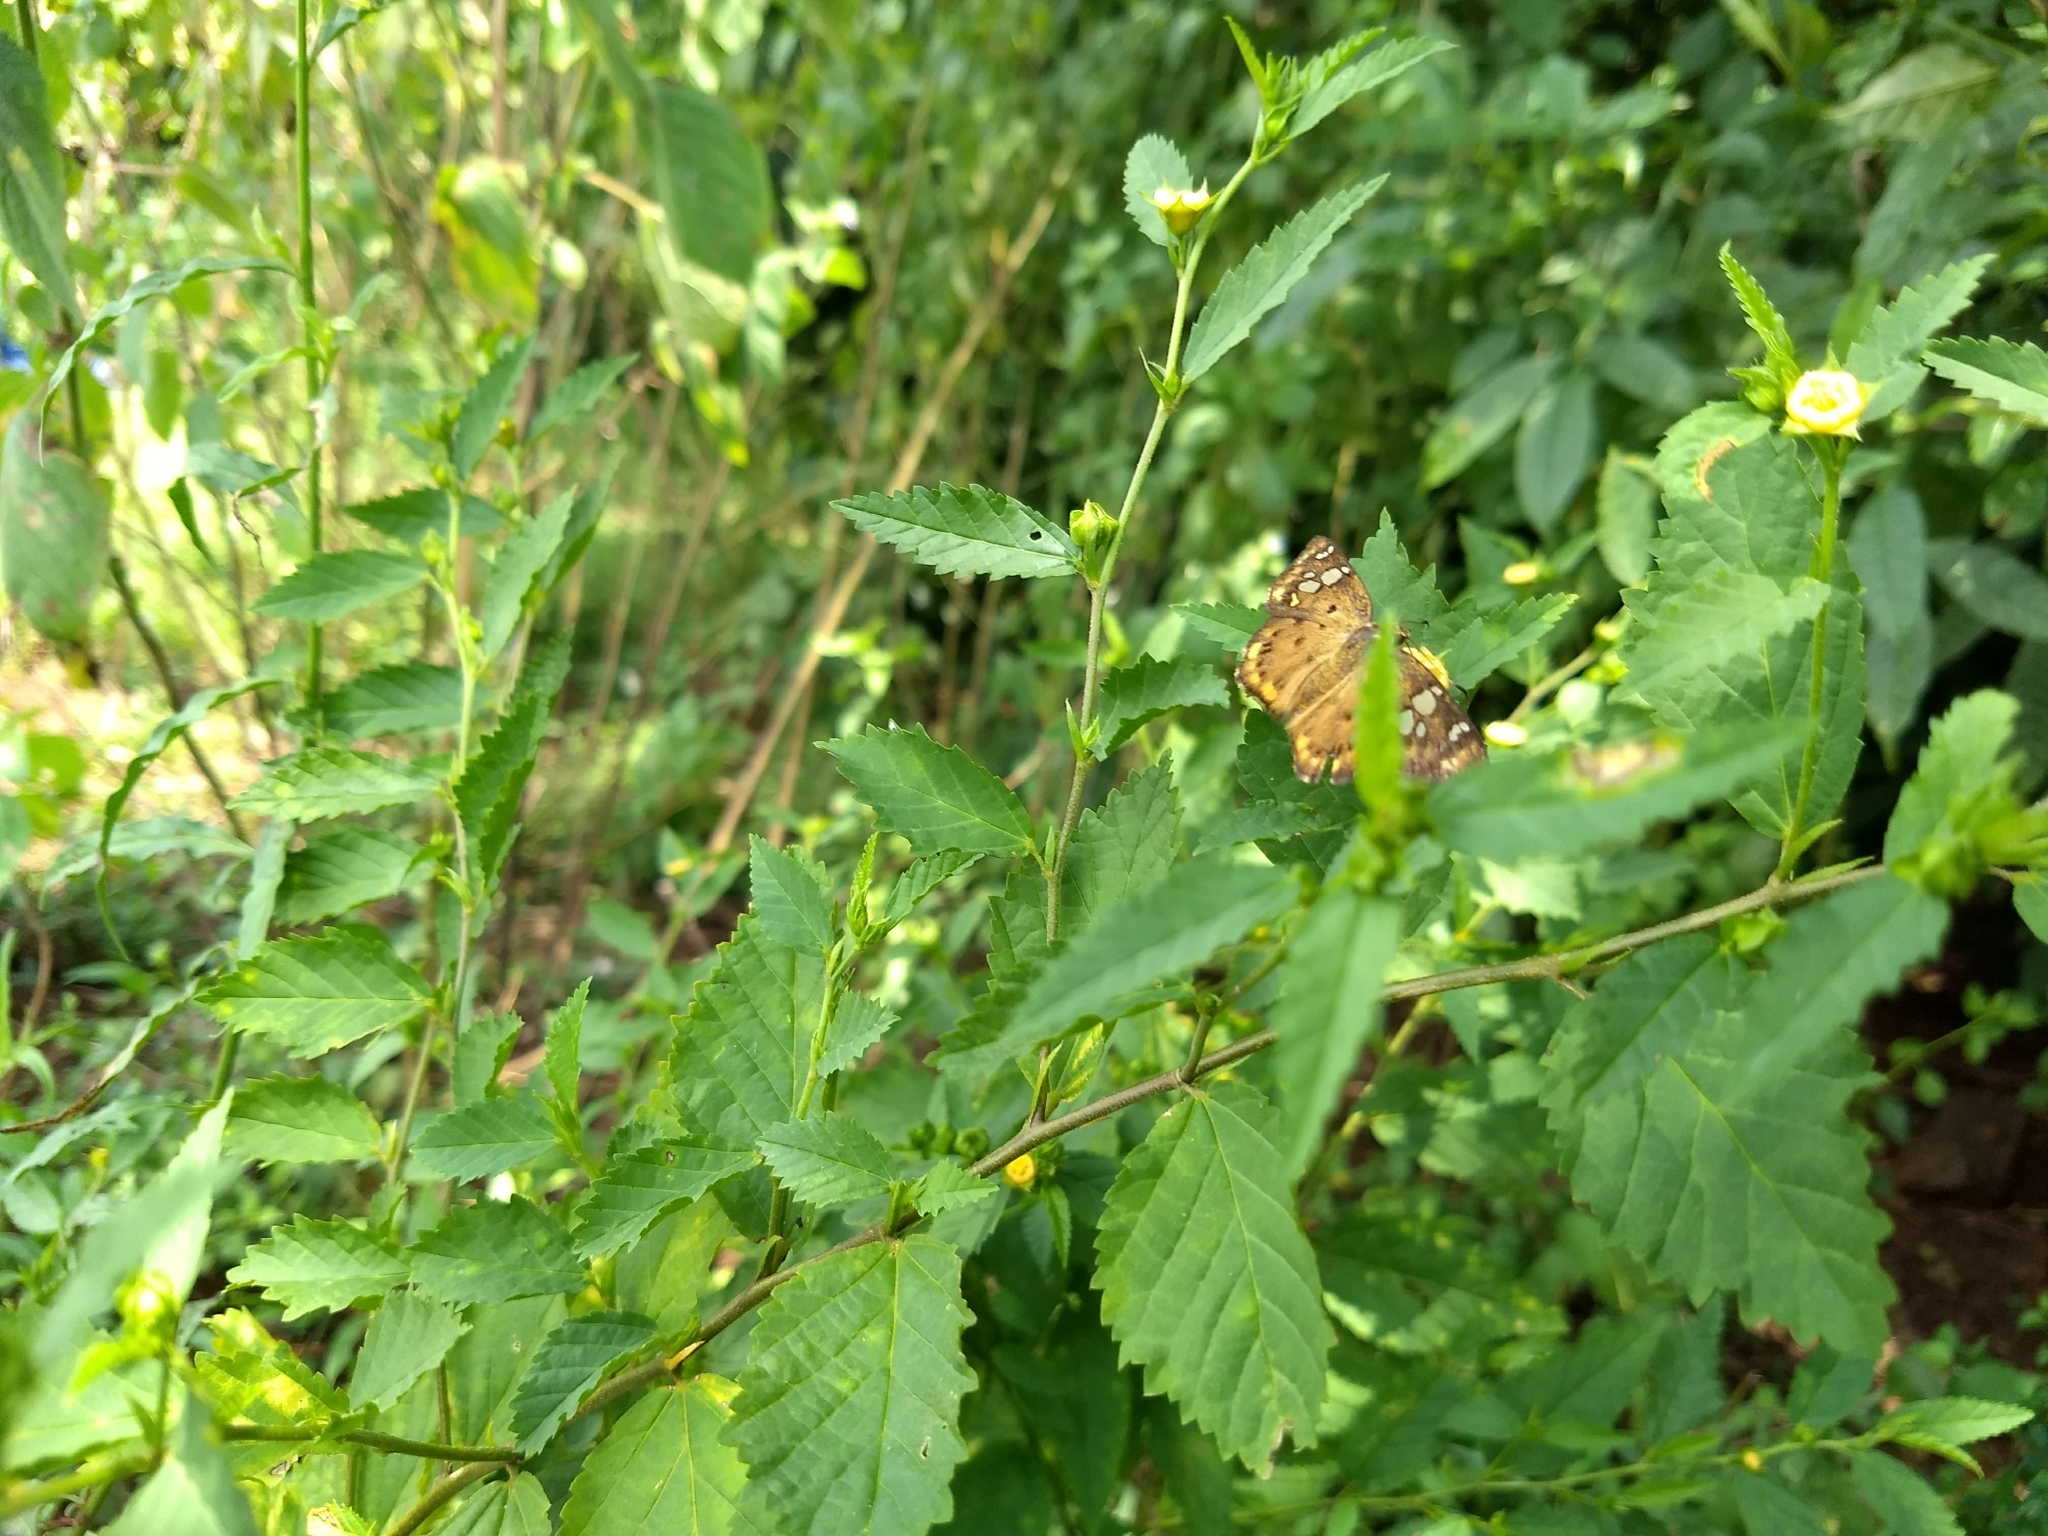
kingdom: Animalia
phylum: Arthropoda
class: Insecta
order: Lepidoptera
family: Hesperiidae
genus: Coladenia
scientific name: Coladenia
